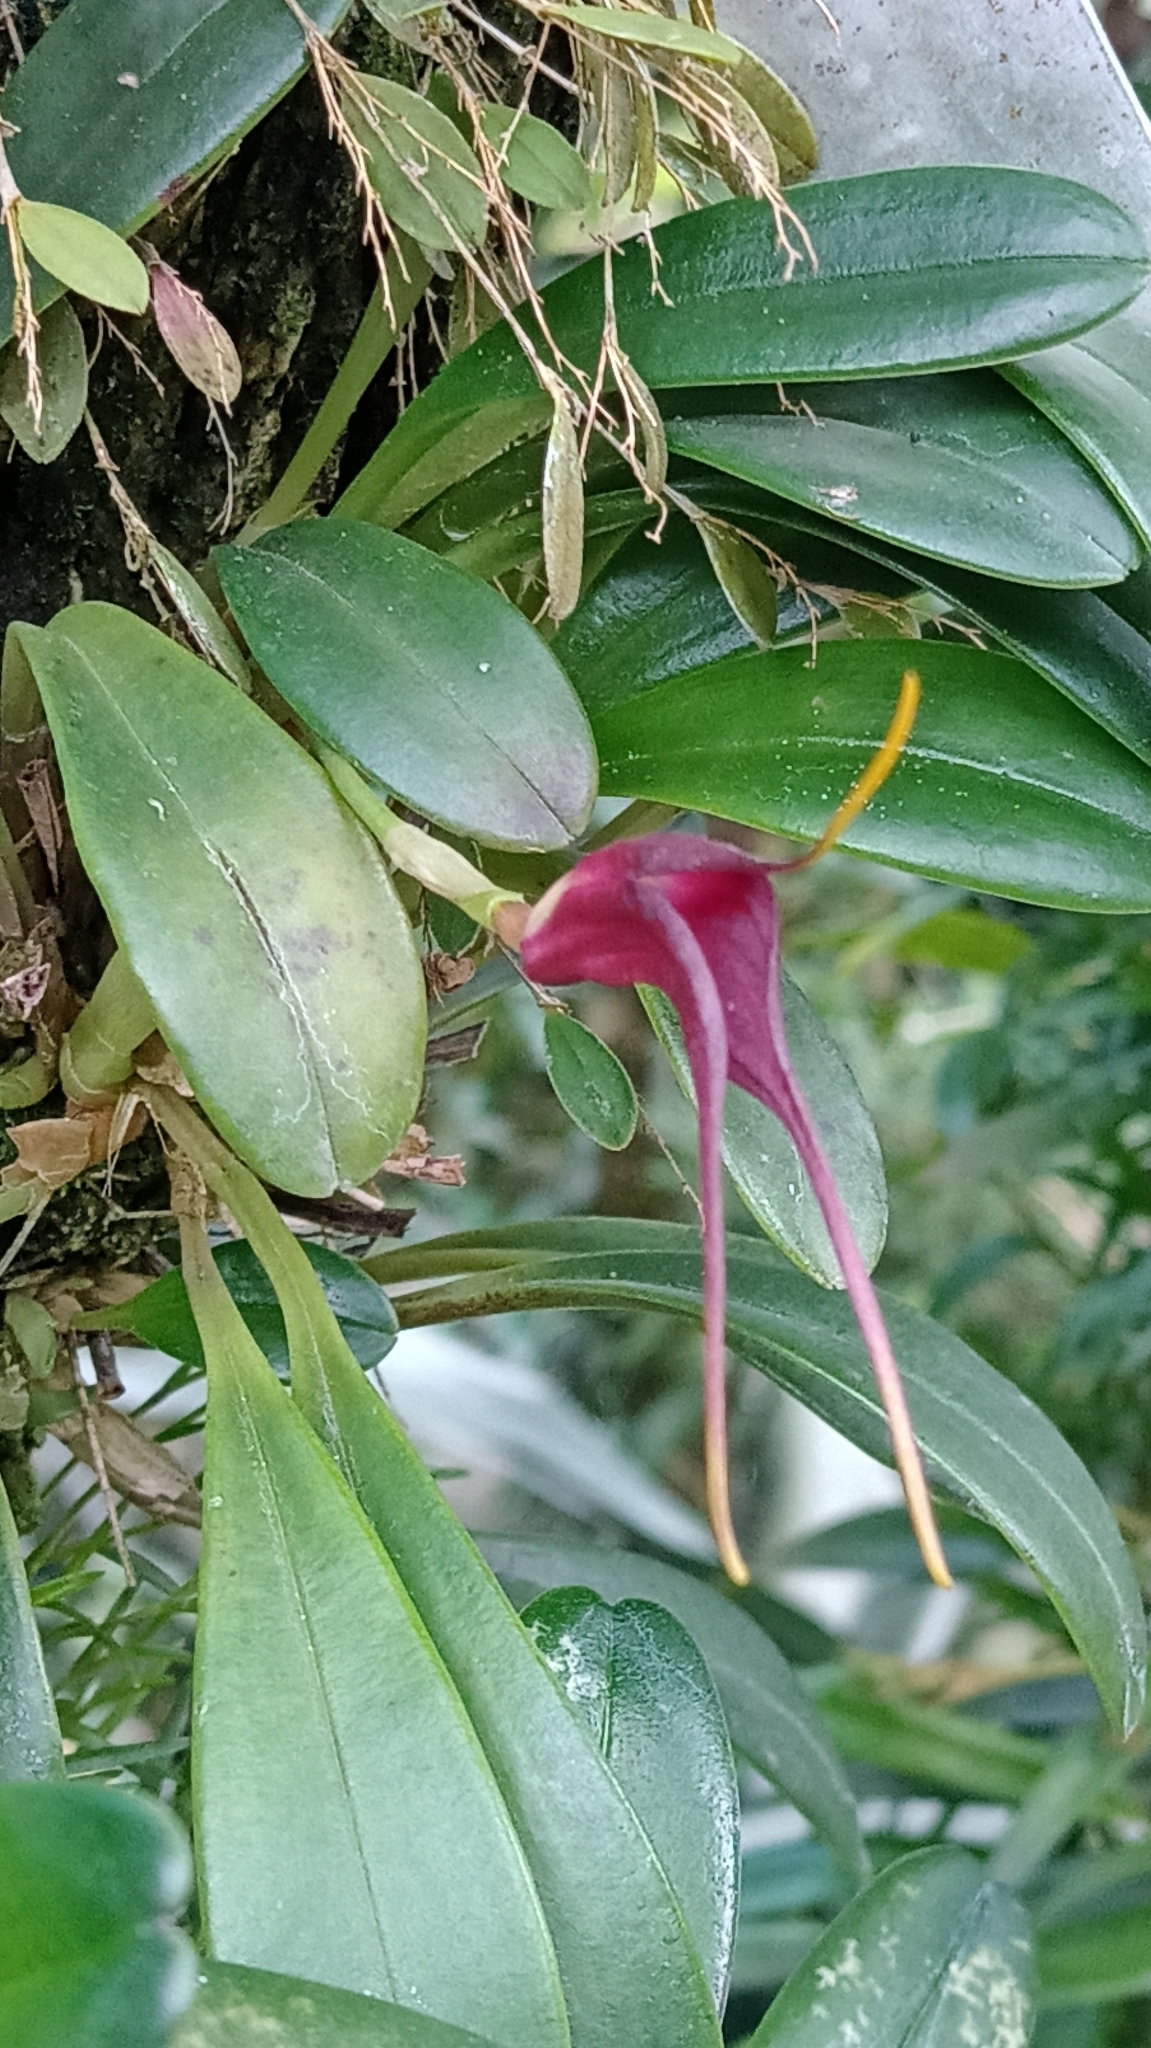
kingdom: Plantae
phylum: Tracheophyta
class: Liliopsida
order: Asparagales
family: Orchidaceae
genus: Masdevallia
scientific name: Masdevallia calura
